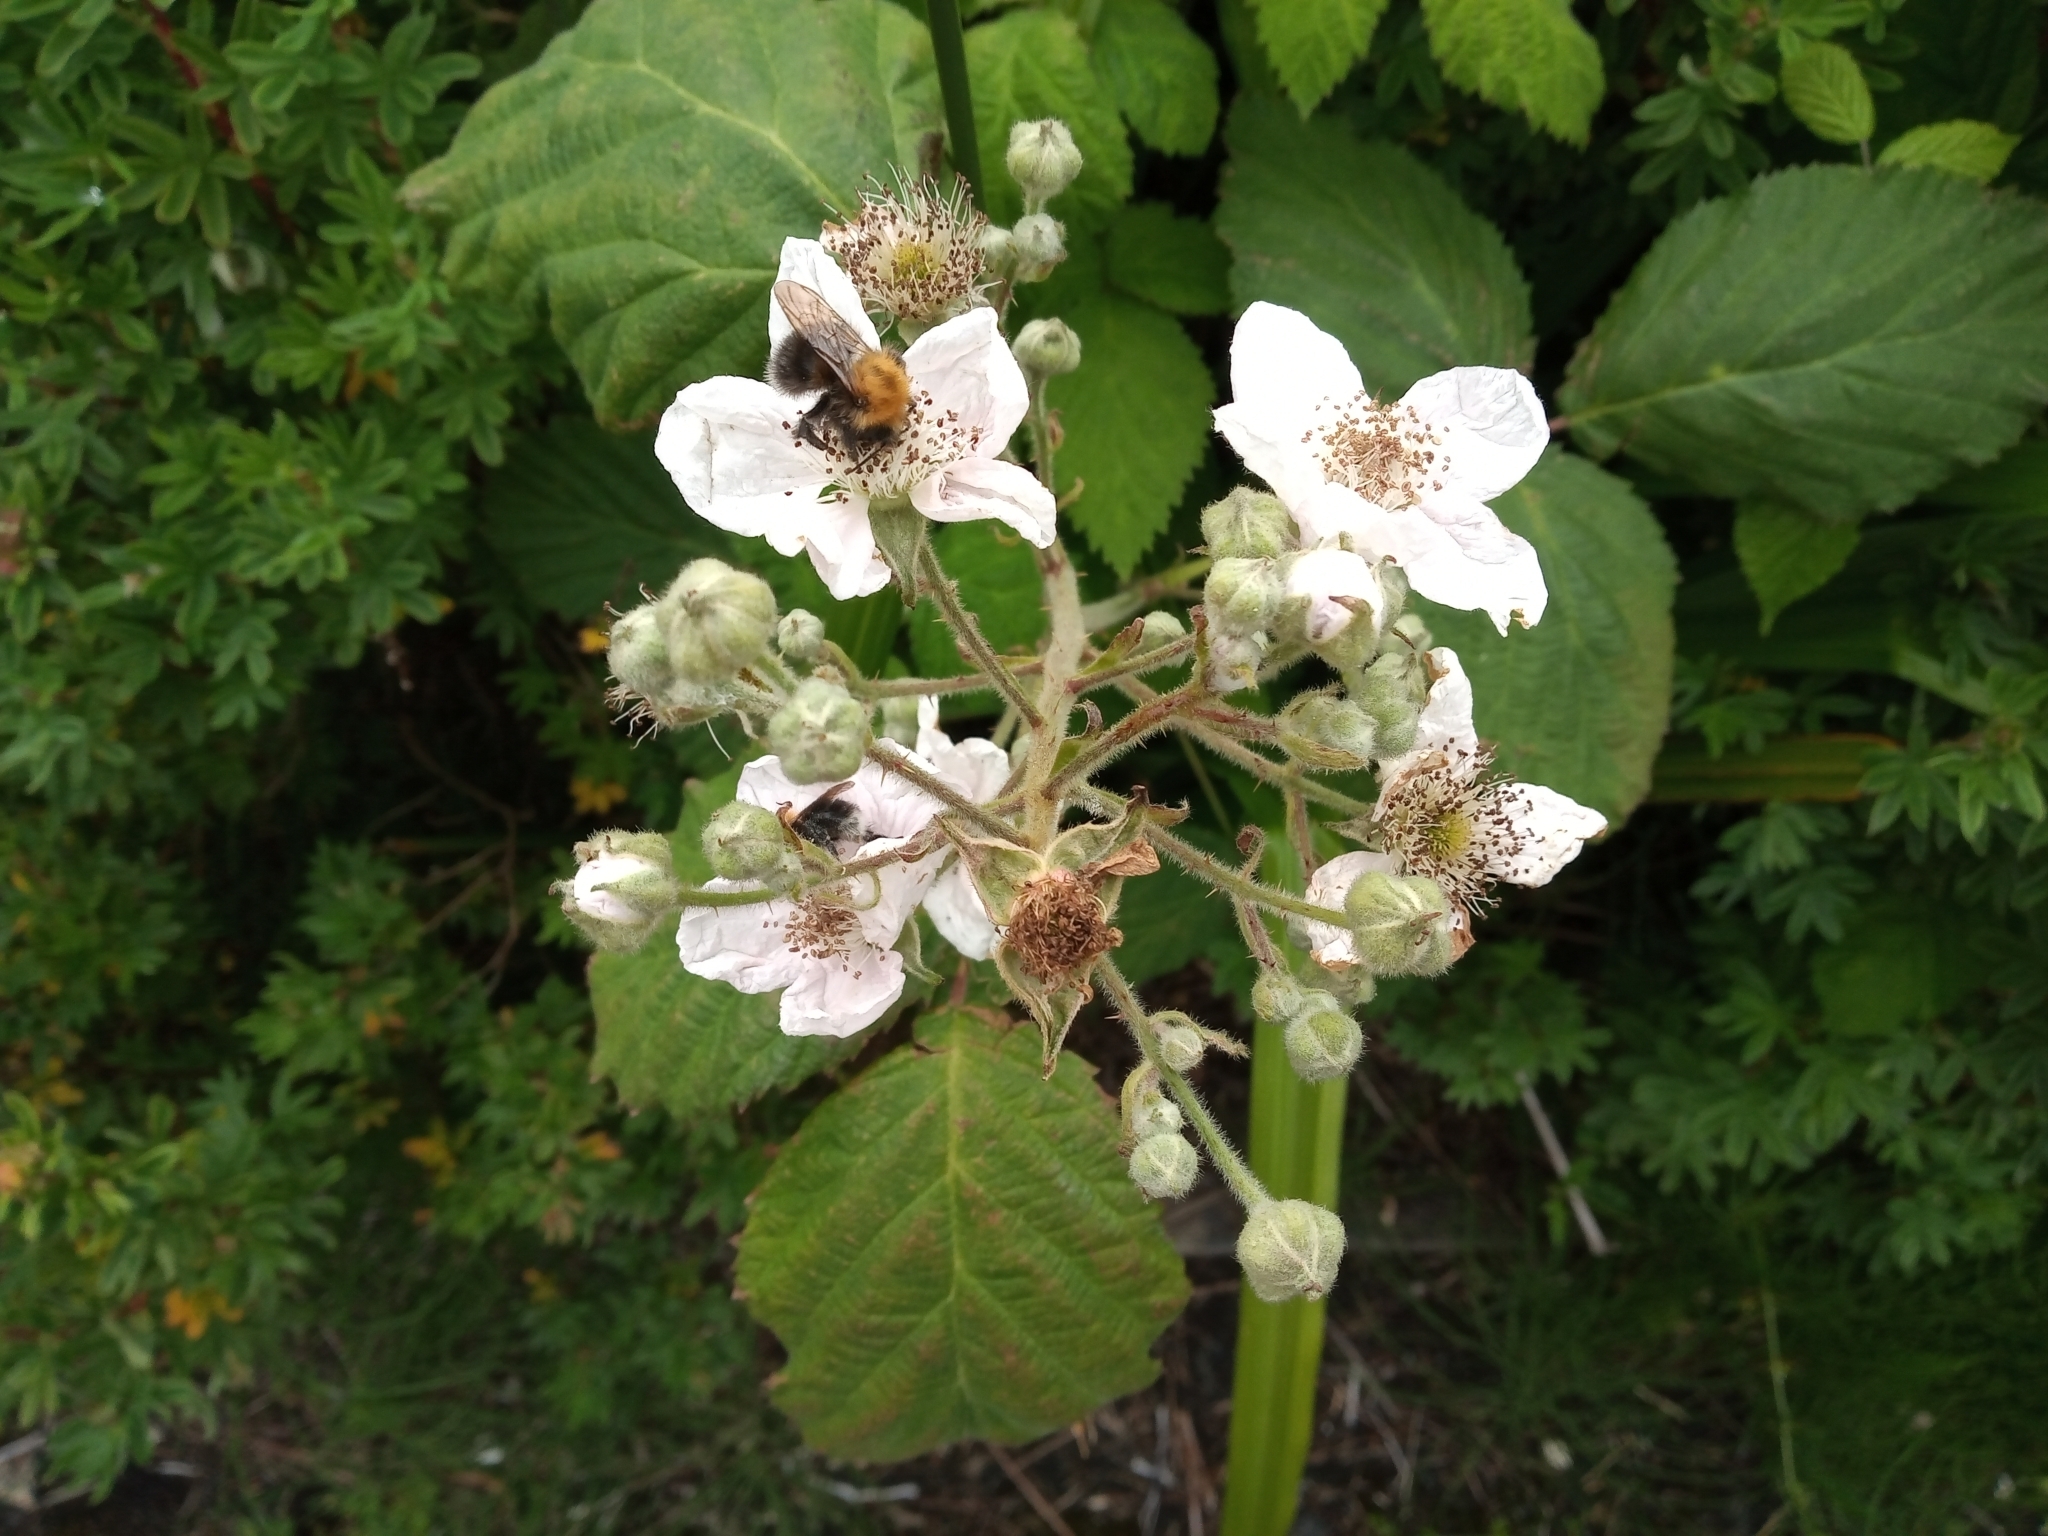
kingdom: Plantae
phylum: Tracheophyta
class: Magnoliopsida
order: Rosales
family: Rosaceae
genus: Rubus
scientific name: Rubus armeniacus
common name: Himalayan blackberry
